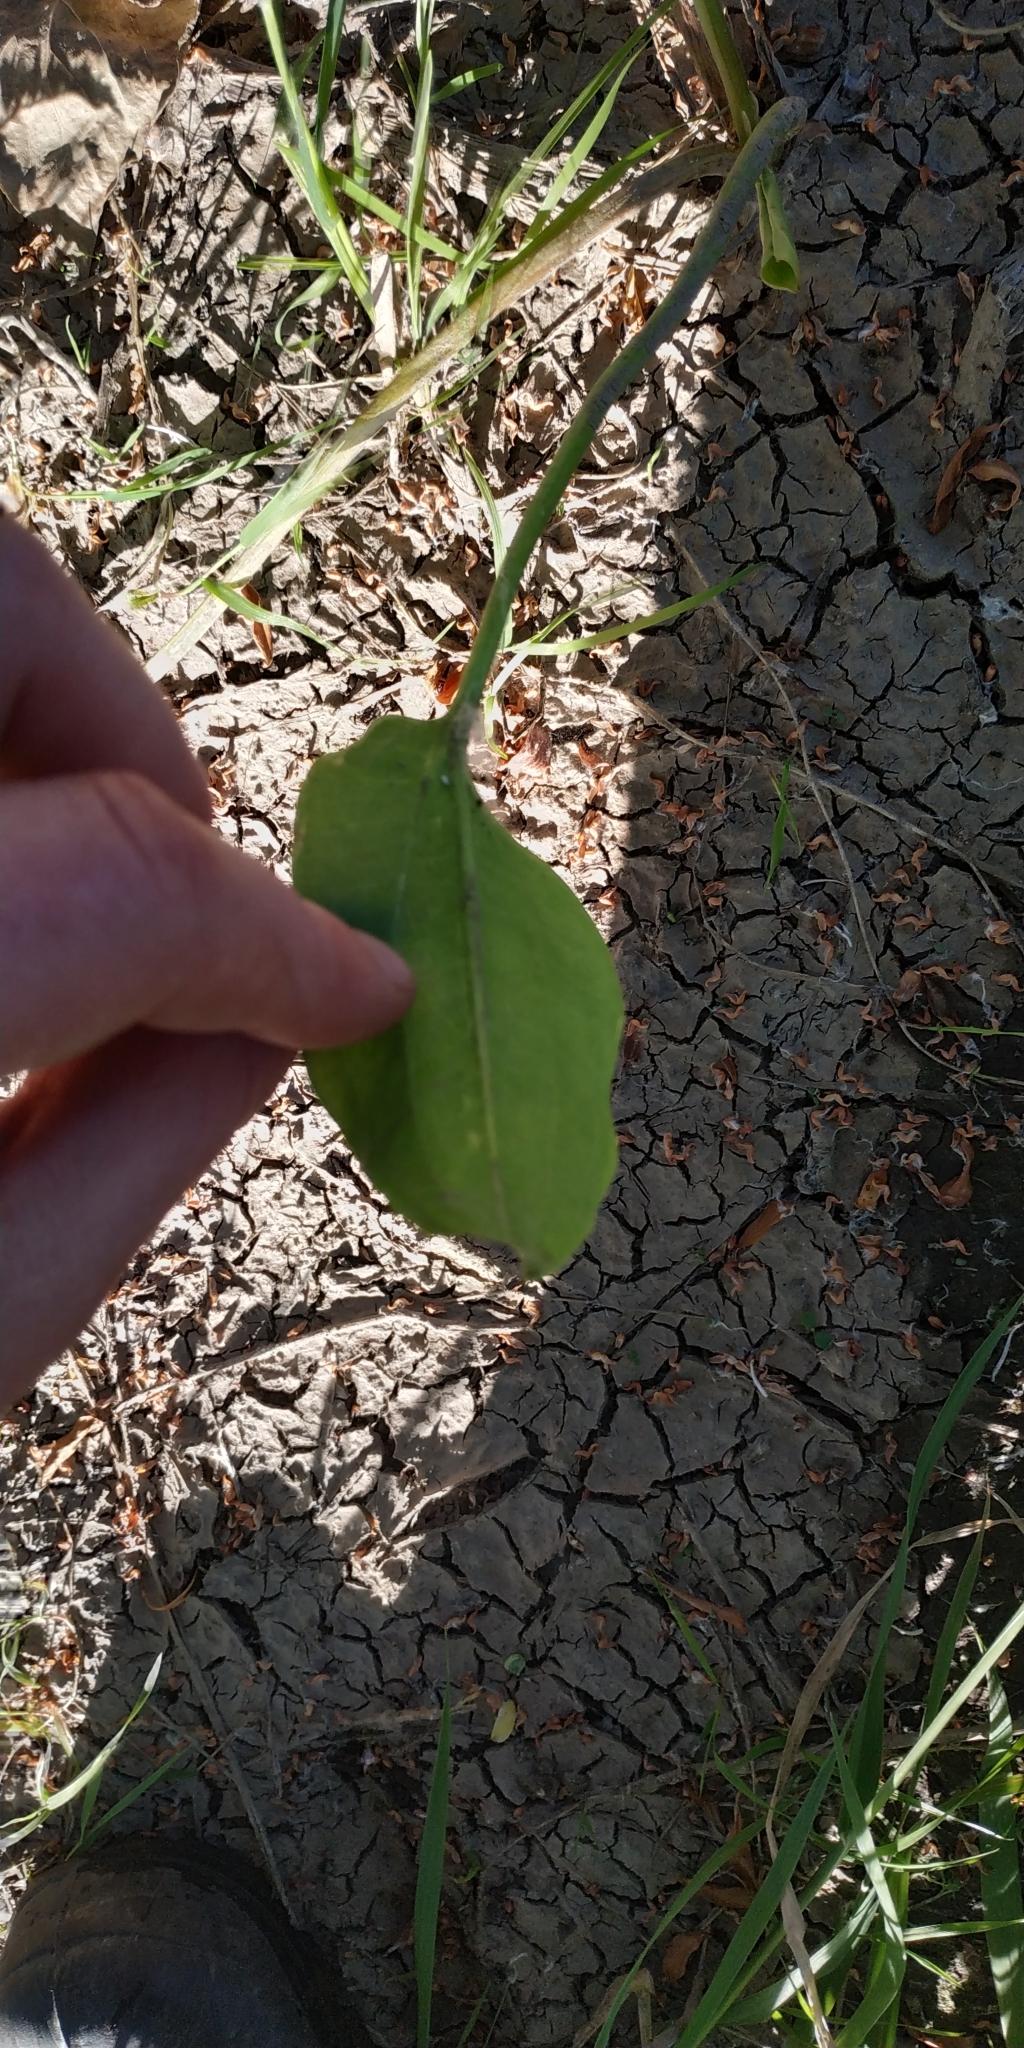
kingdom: Plantae
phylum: Tracheophyta
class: Liliopsida
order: Alismatales
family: Alismataceae
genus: Alisma
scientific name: Alisma plantago-aquatica
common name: Water-plantain
